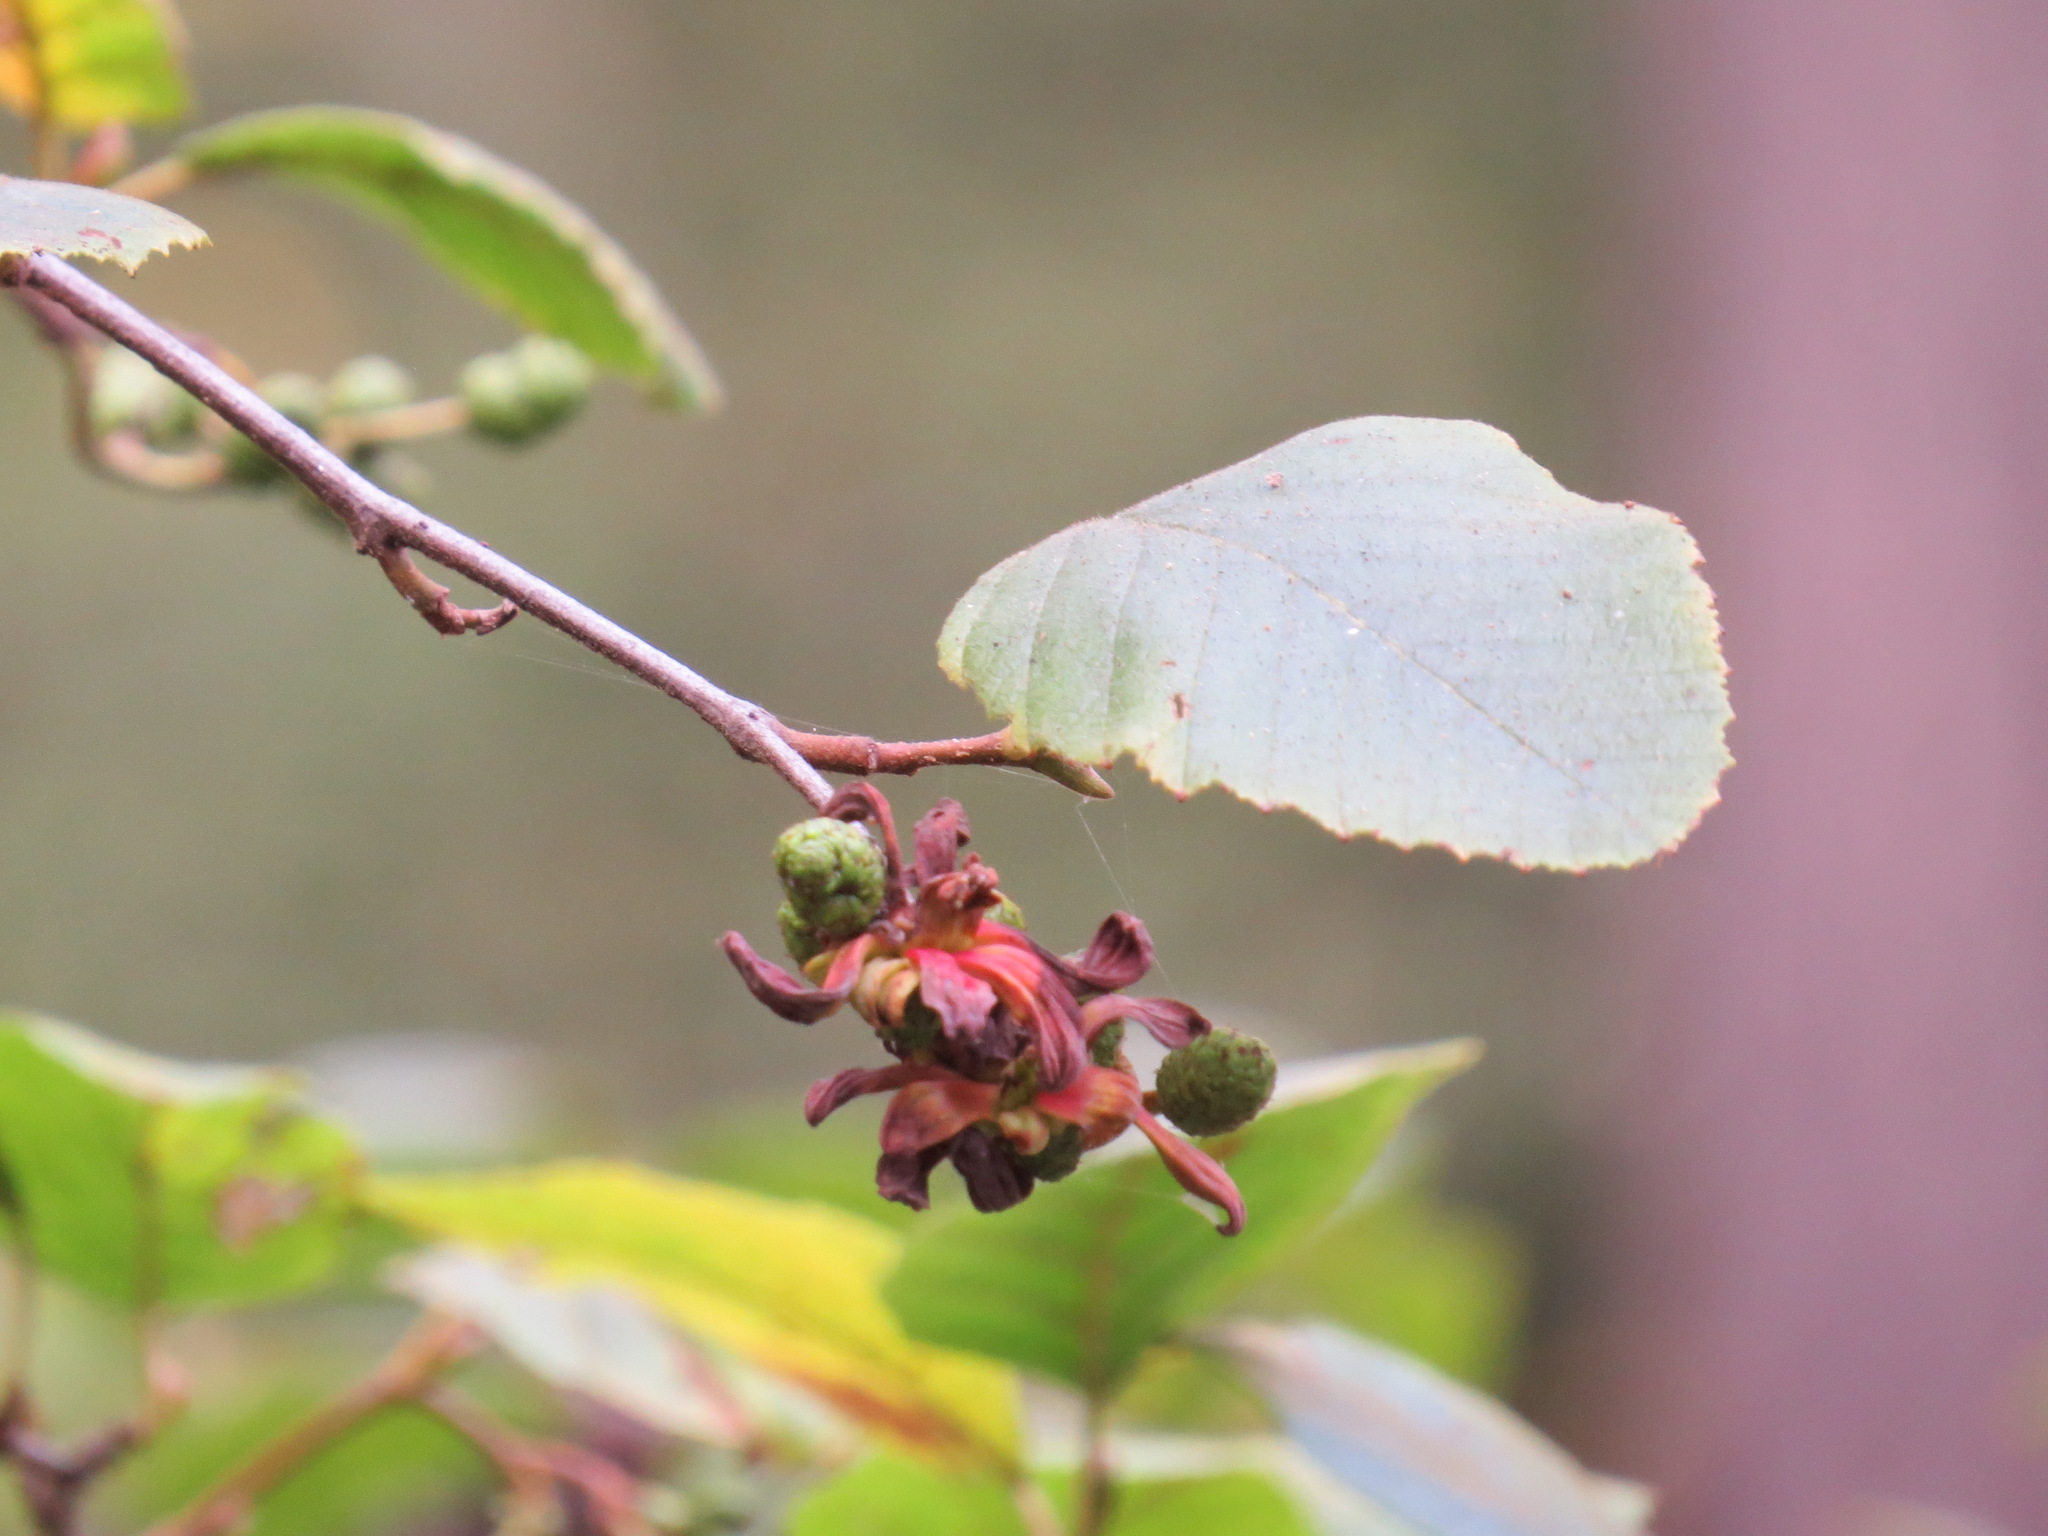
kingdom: Fungi
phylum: Ascomycota
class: Taphrinomycetes
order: Taphrinales
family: Taphrinaceae
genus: Taphrina
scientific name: Taphrina occidentalis
